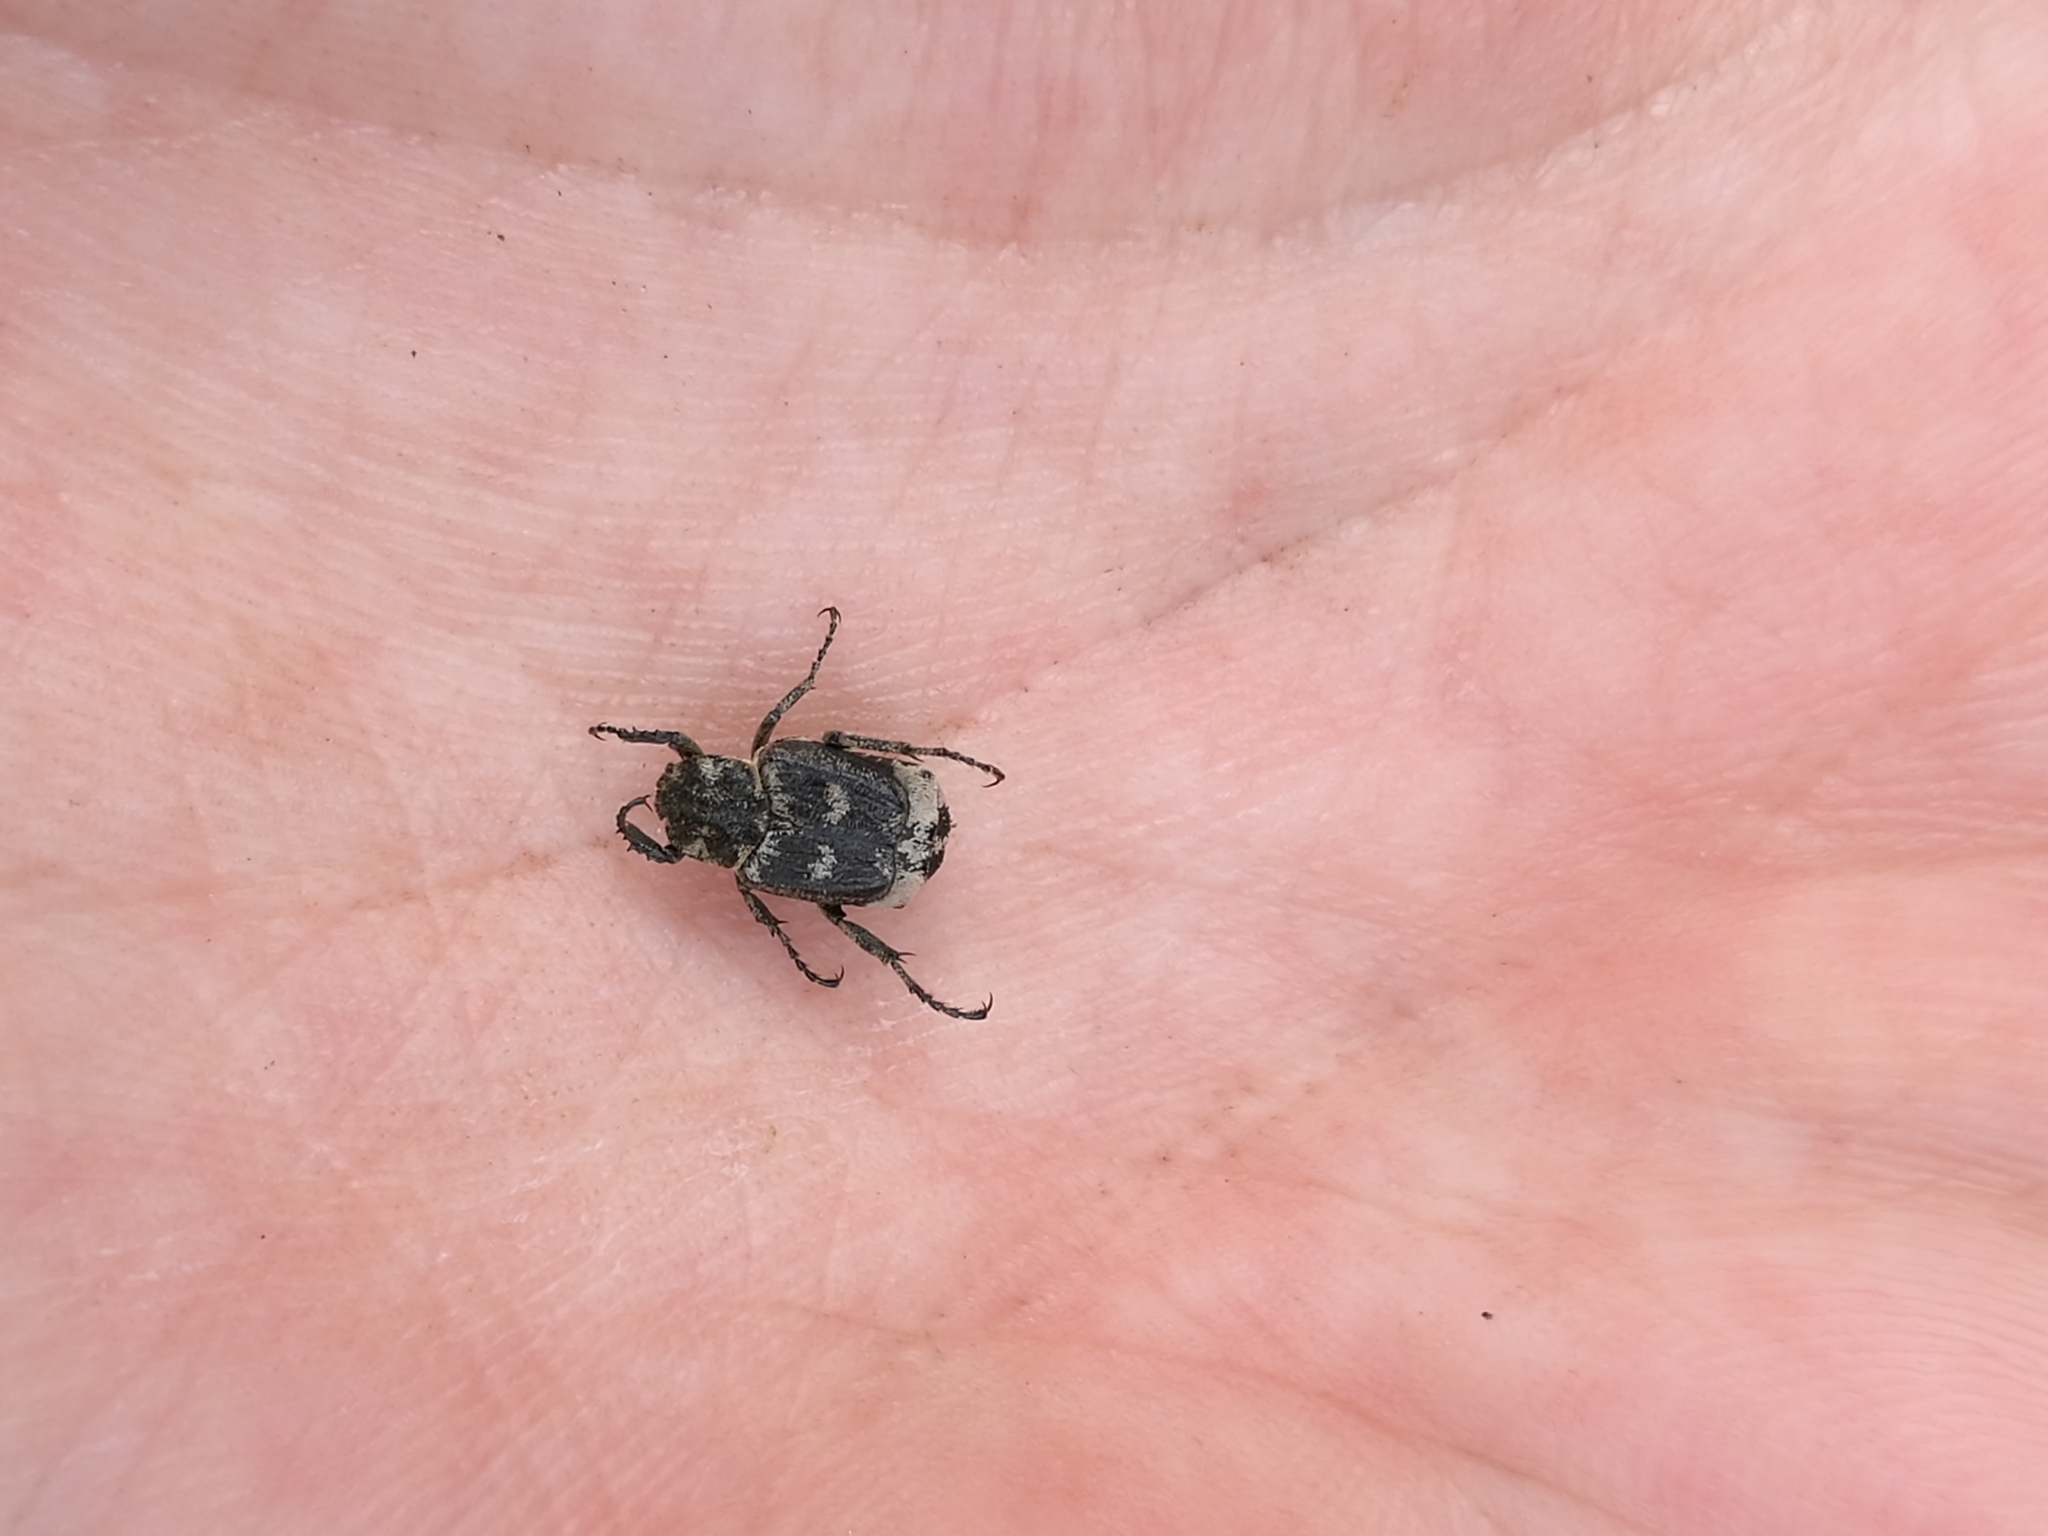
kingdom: Animalia
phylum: Arthropoda
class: Insecta
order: Coleoptera
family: Scarabaeidae
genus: Valgus
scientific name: Valgus hemipterus
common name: Bug flower chafer
